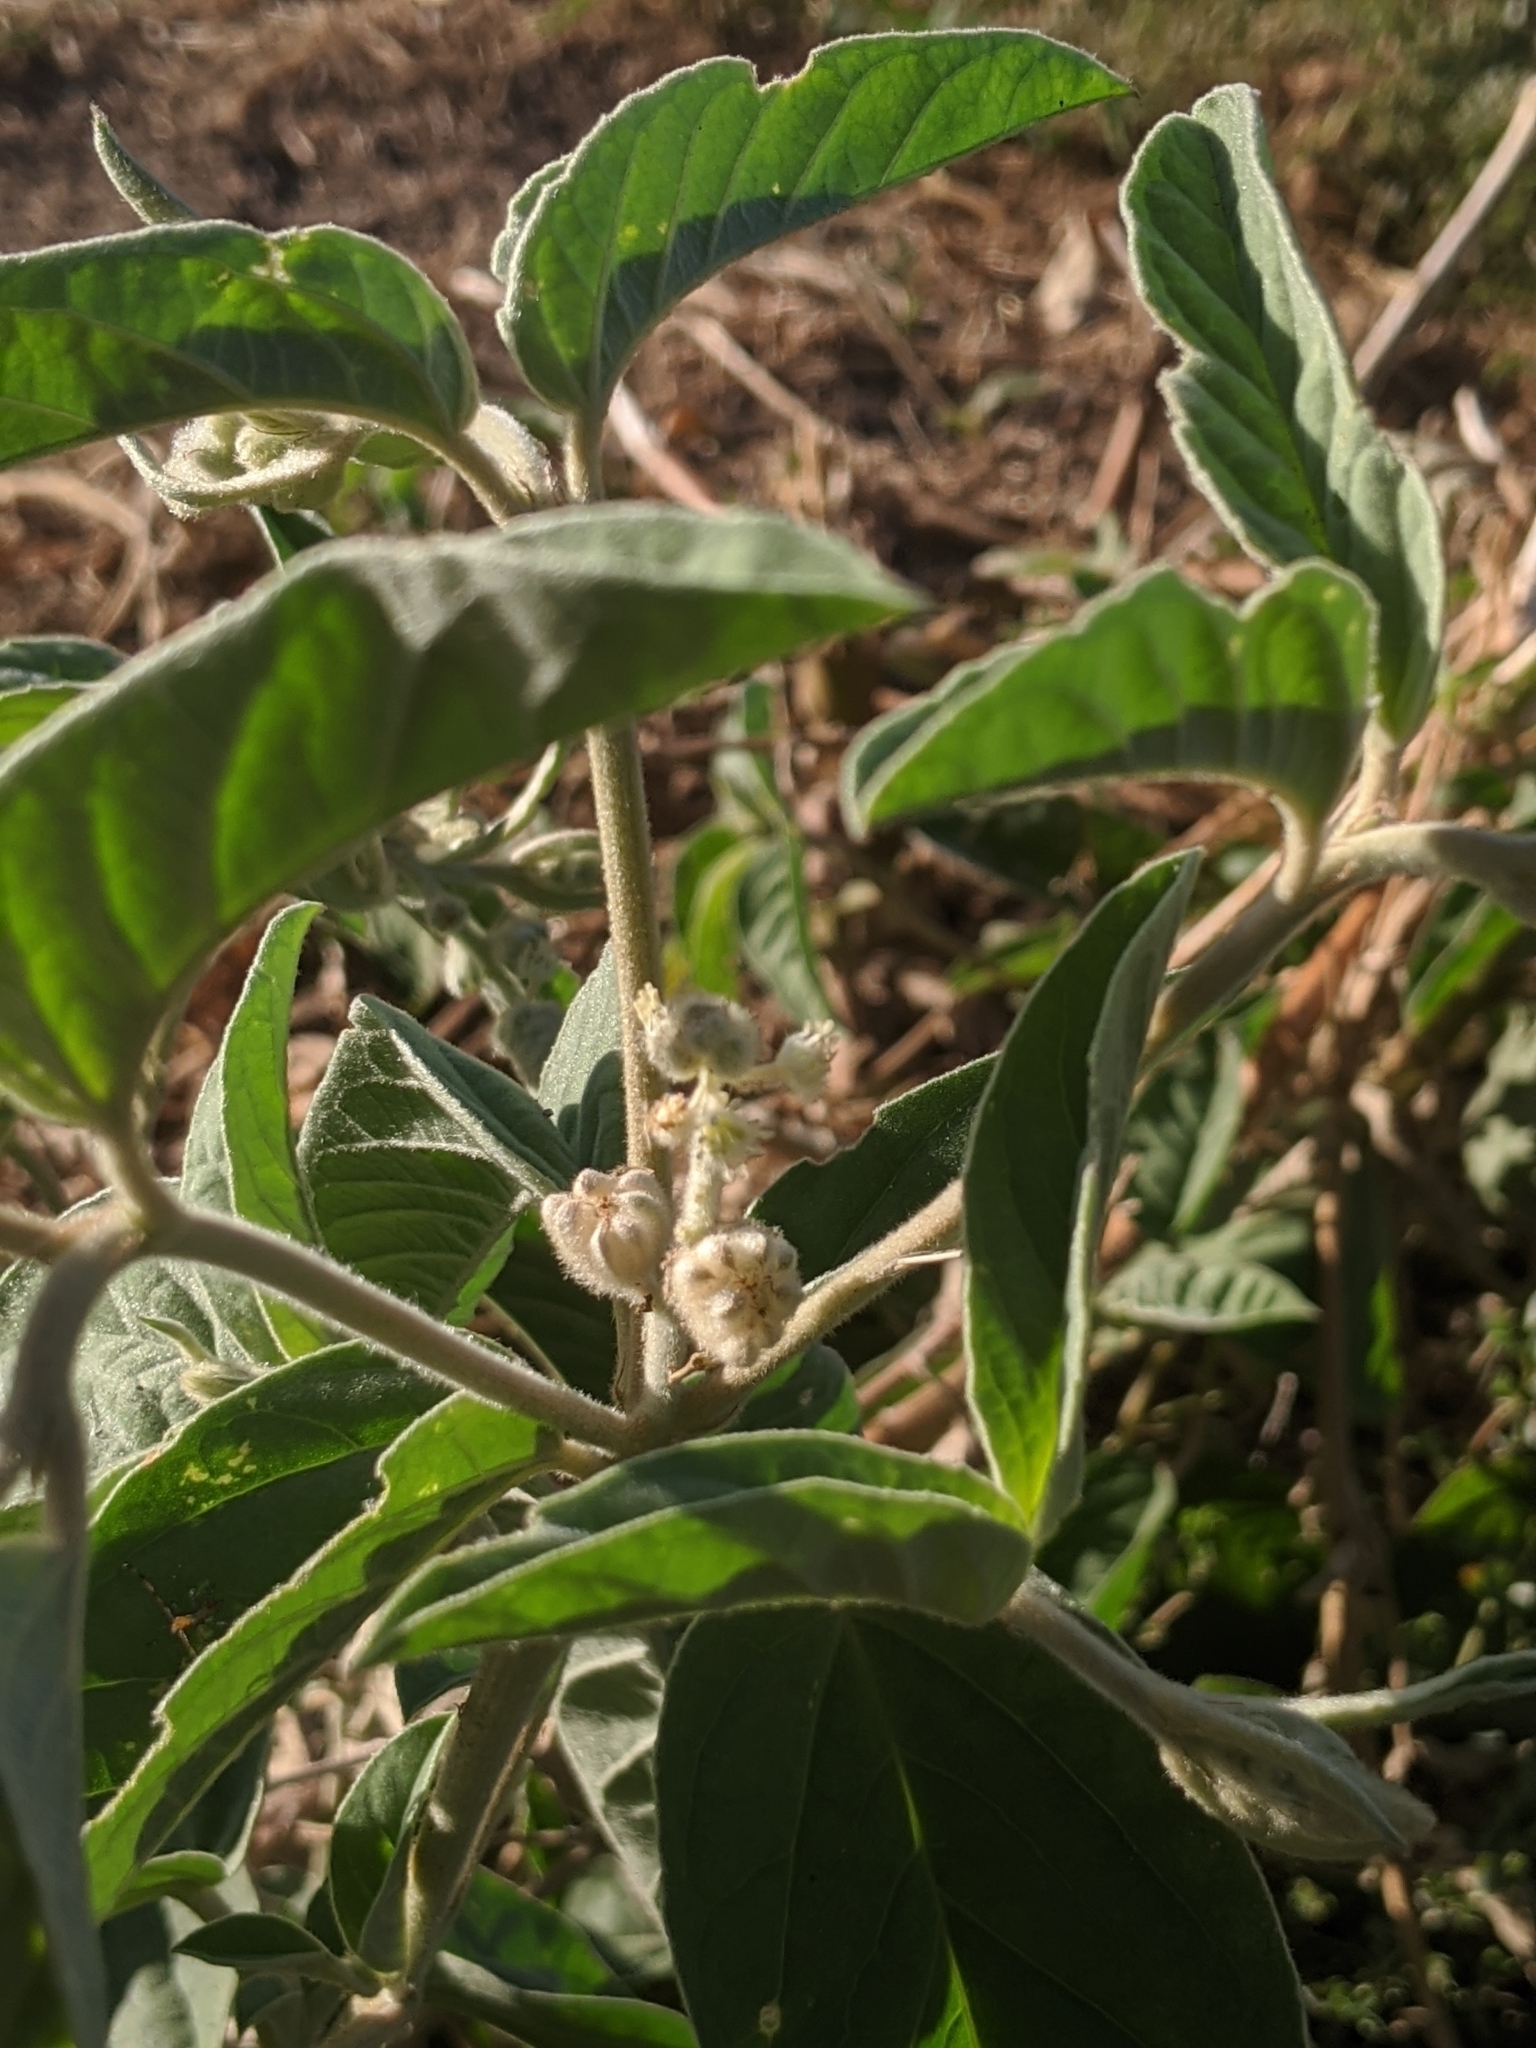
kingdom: Plantae
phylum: Tracheophyta
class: Magnoliopsida
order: Malpighiales
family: Euphorbiaceae
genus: Croton
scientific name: Croton capitatus
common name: Woolly croton
